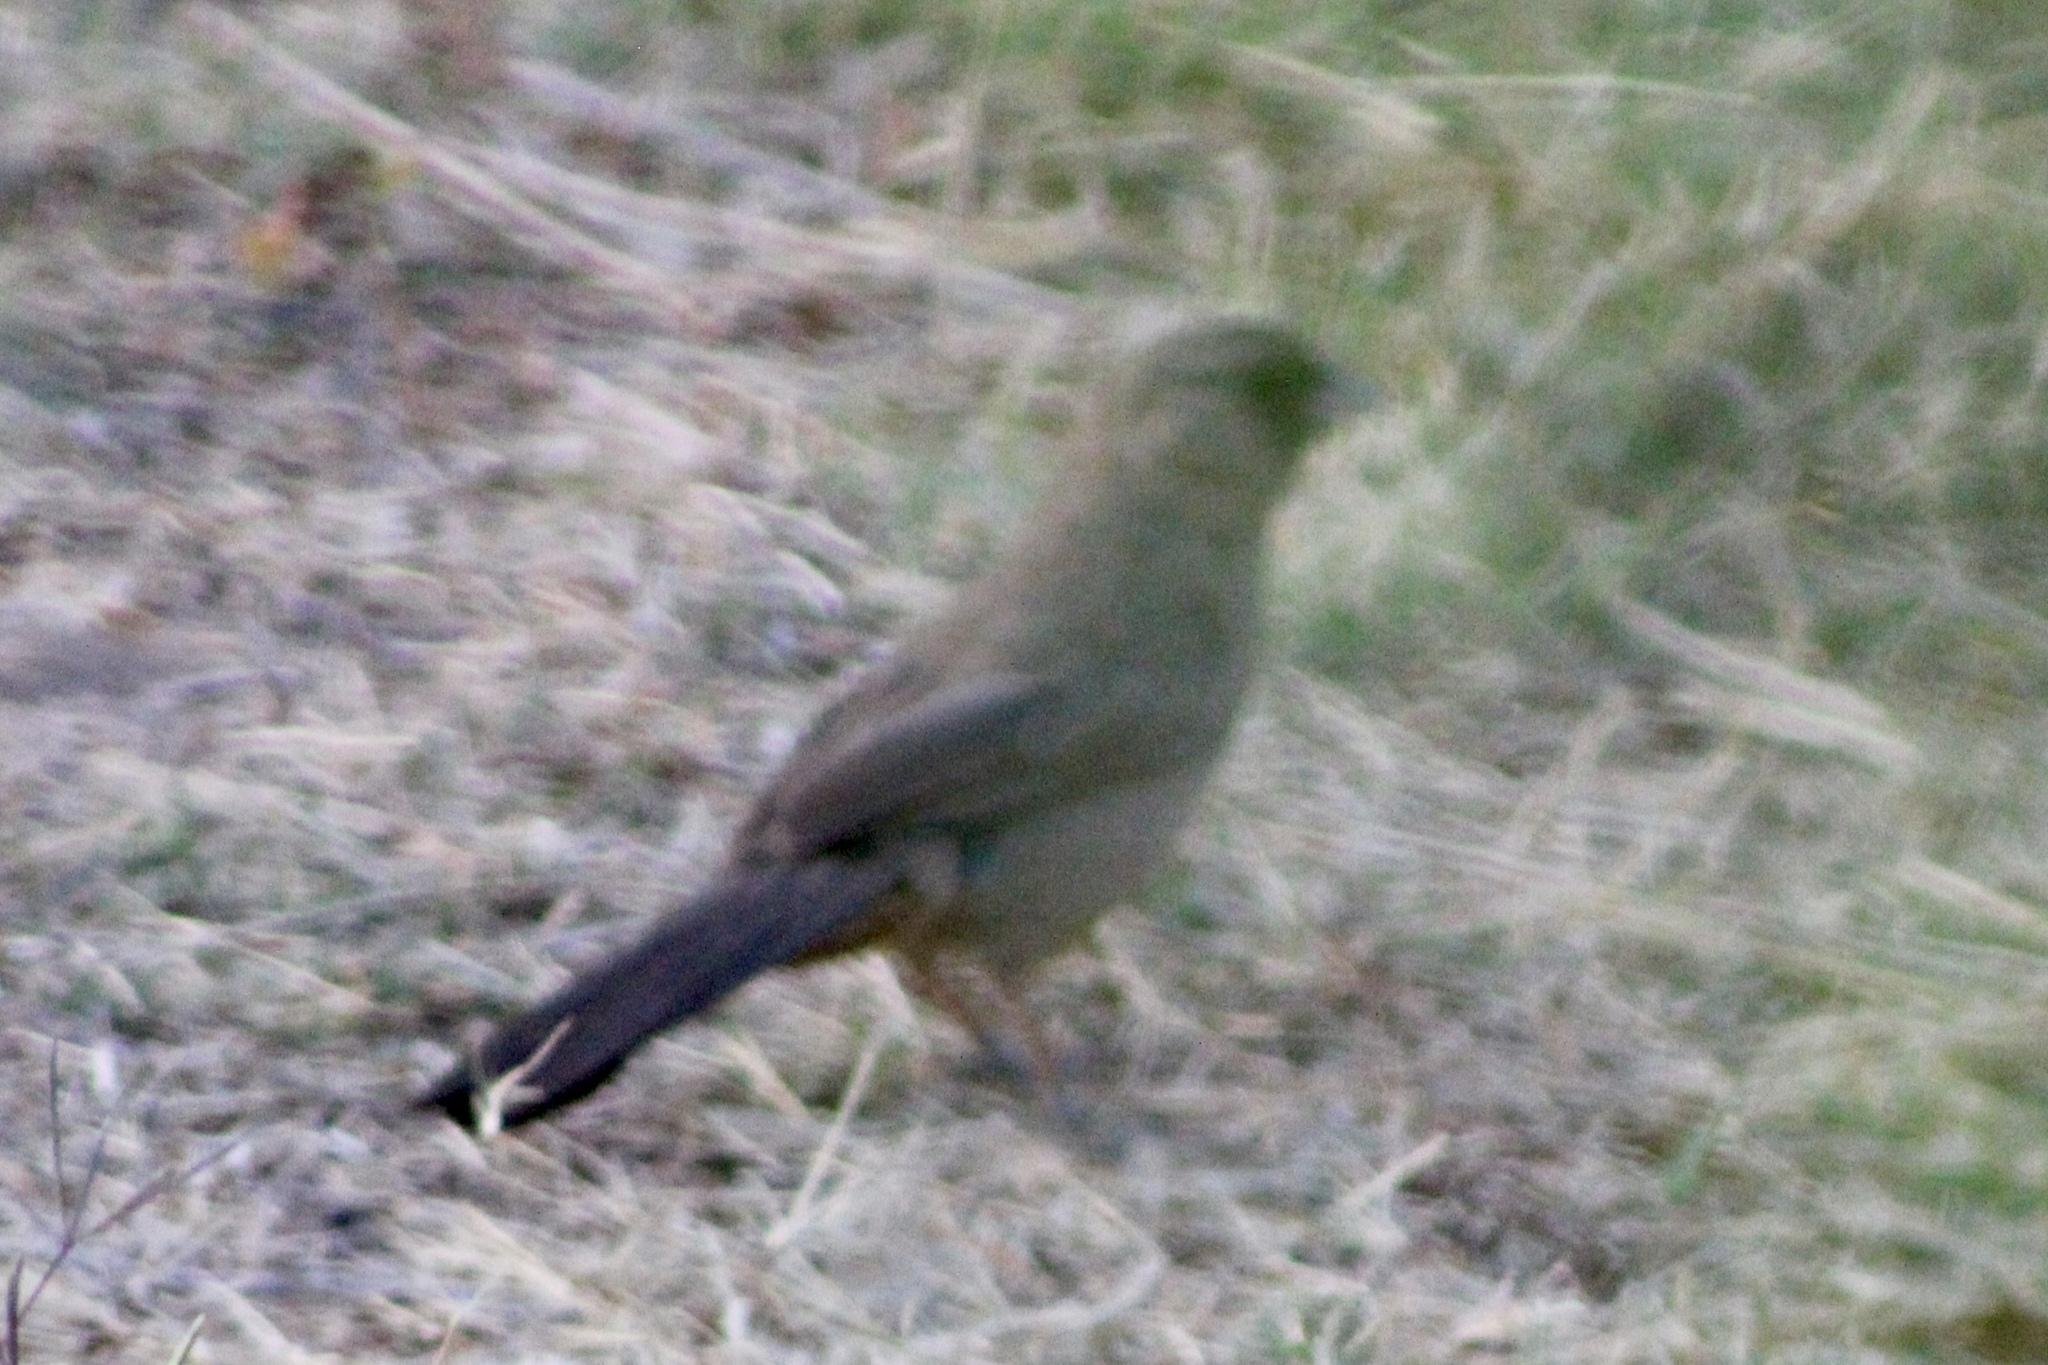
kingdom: Animalia
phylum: Chordata
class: Aves
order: Passeriformes
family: Passerellidae
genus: Melozone
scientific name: Melozone aberti
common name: Abert's towhee
